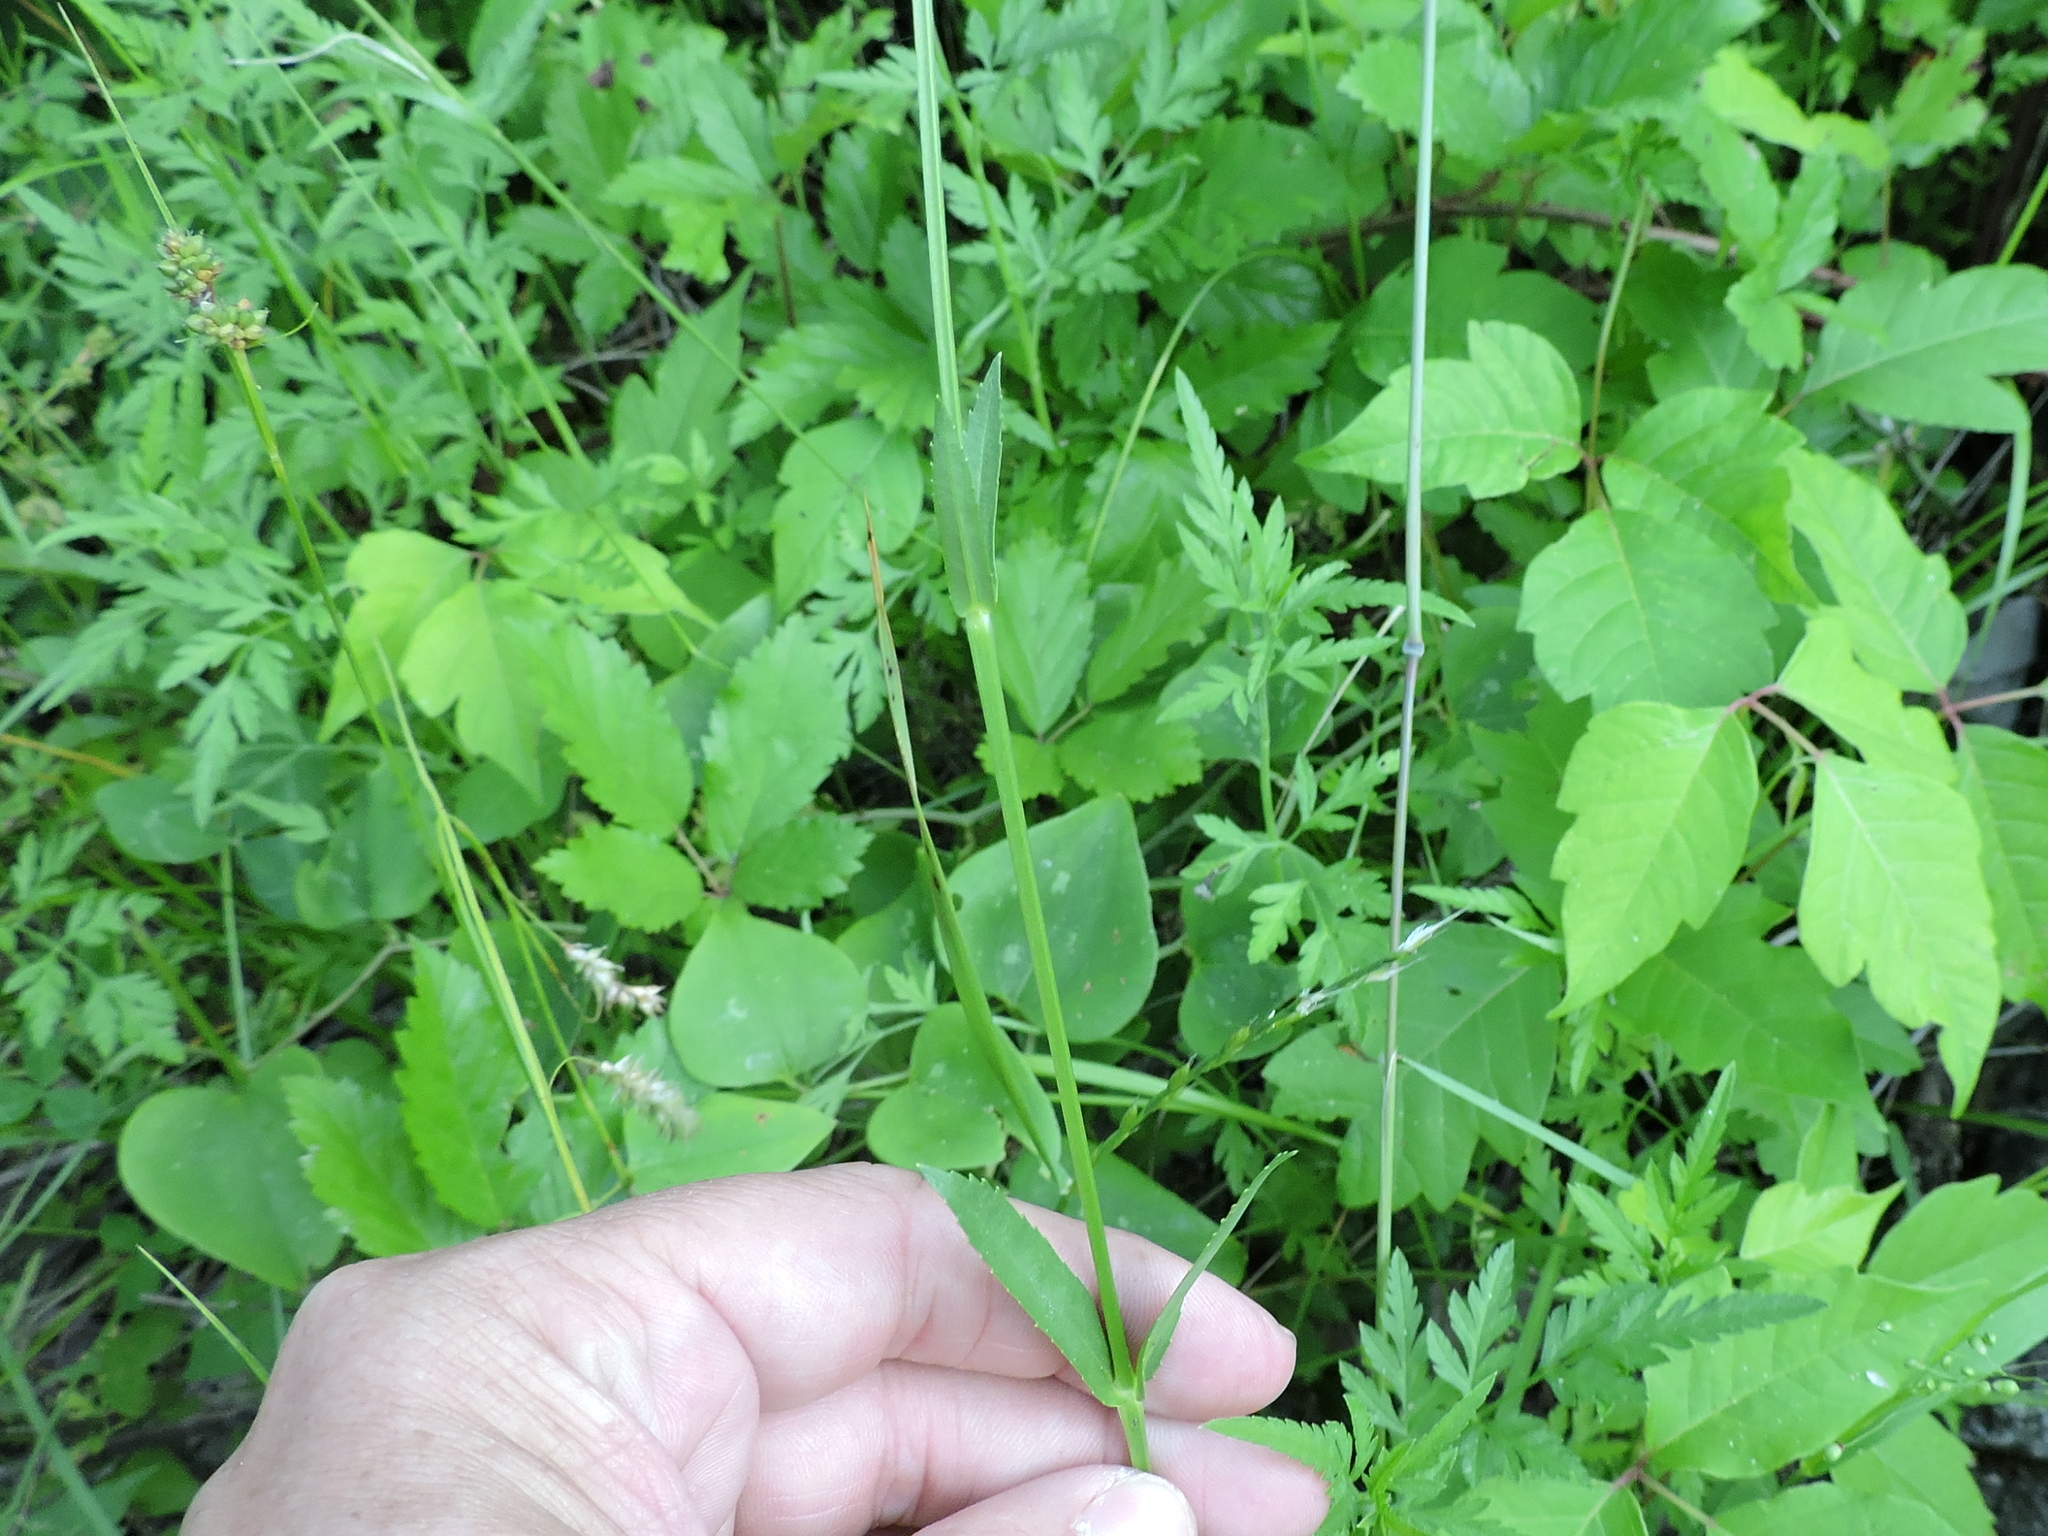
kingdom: Plantae
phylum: Tracheophyta
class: Magnoliopsida
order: Lamiales
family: Lamiaceae
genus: Physostegia
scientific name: Physostegia virginiana
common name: Obedient-plant
